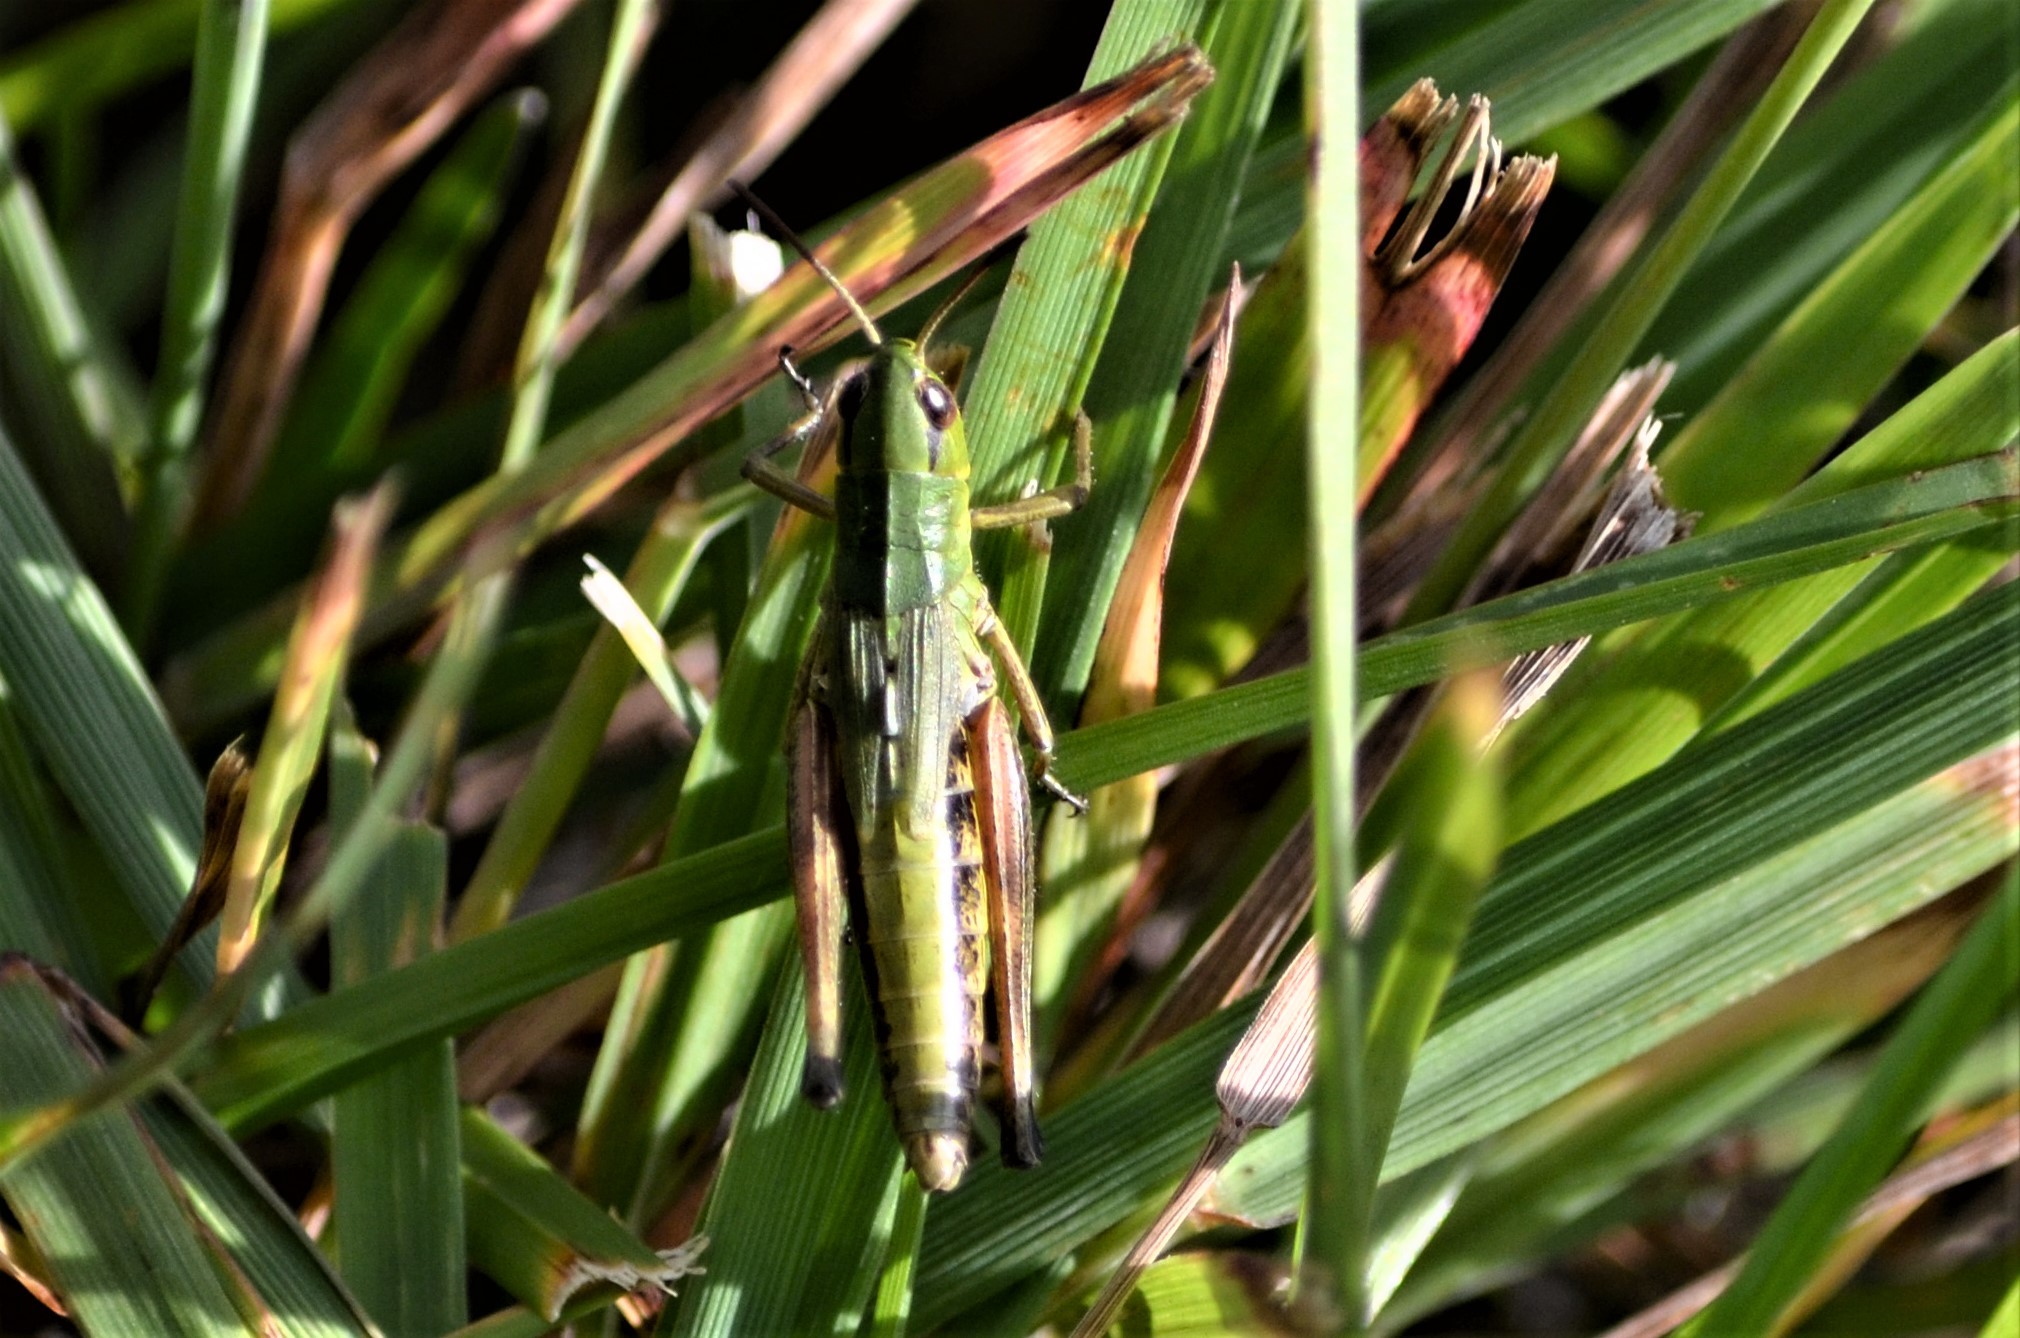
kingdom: Animalia
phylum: Arthropoda
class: Insecta
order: Orthoptera
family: Acrididae
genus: Pseudochorthippus
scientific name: Pseudochorthippus parallelus
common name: Meadow grasshopper
